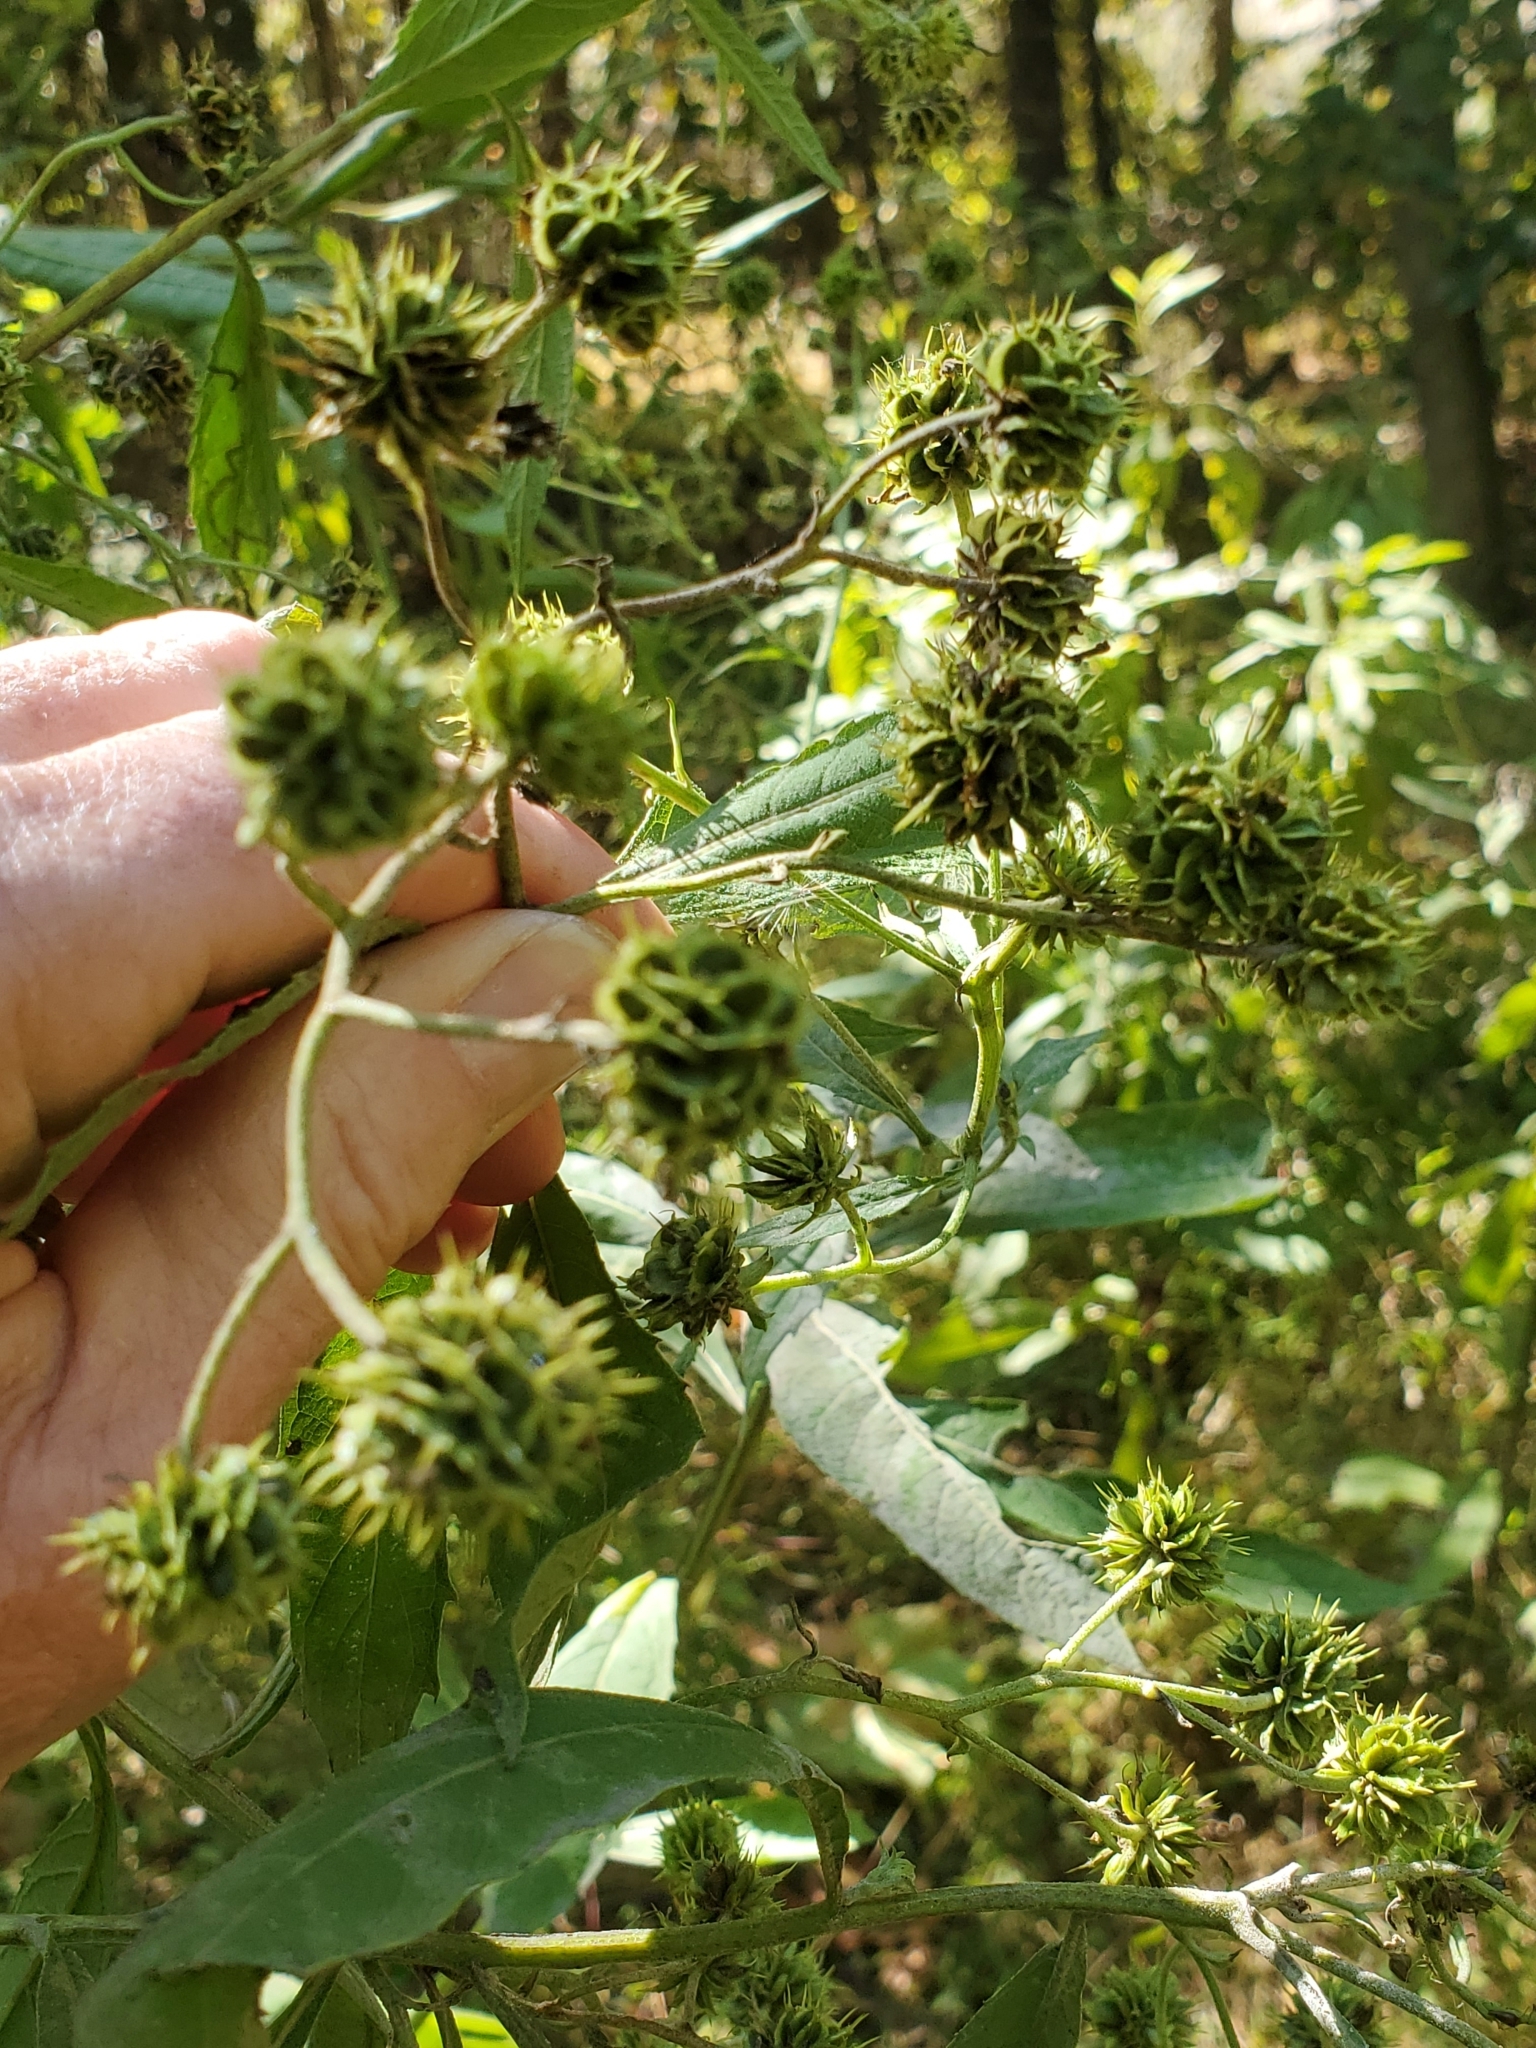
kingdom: Plantae
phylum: Tracheophyta
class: Magnoliopsida
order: Asterales
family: Asteraceae
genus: Verbesina
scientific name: Verbesina alternifolia
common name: Wingstem
